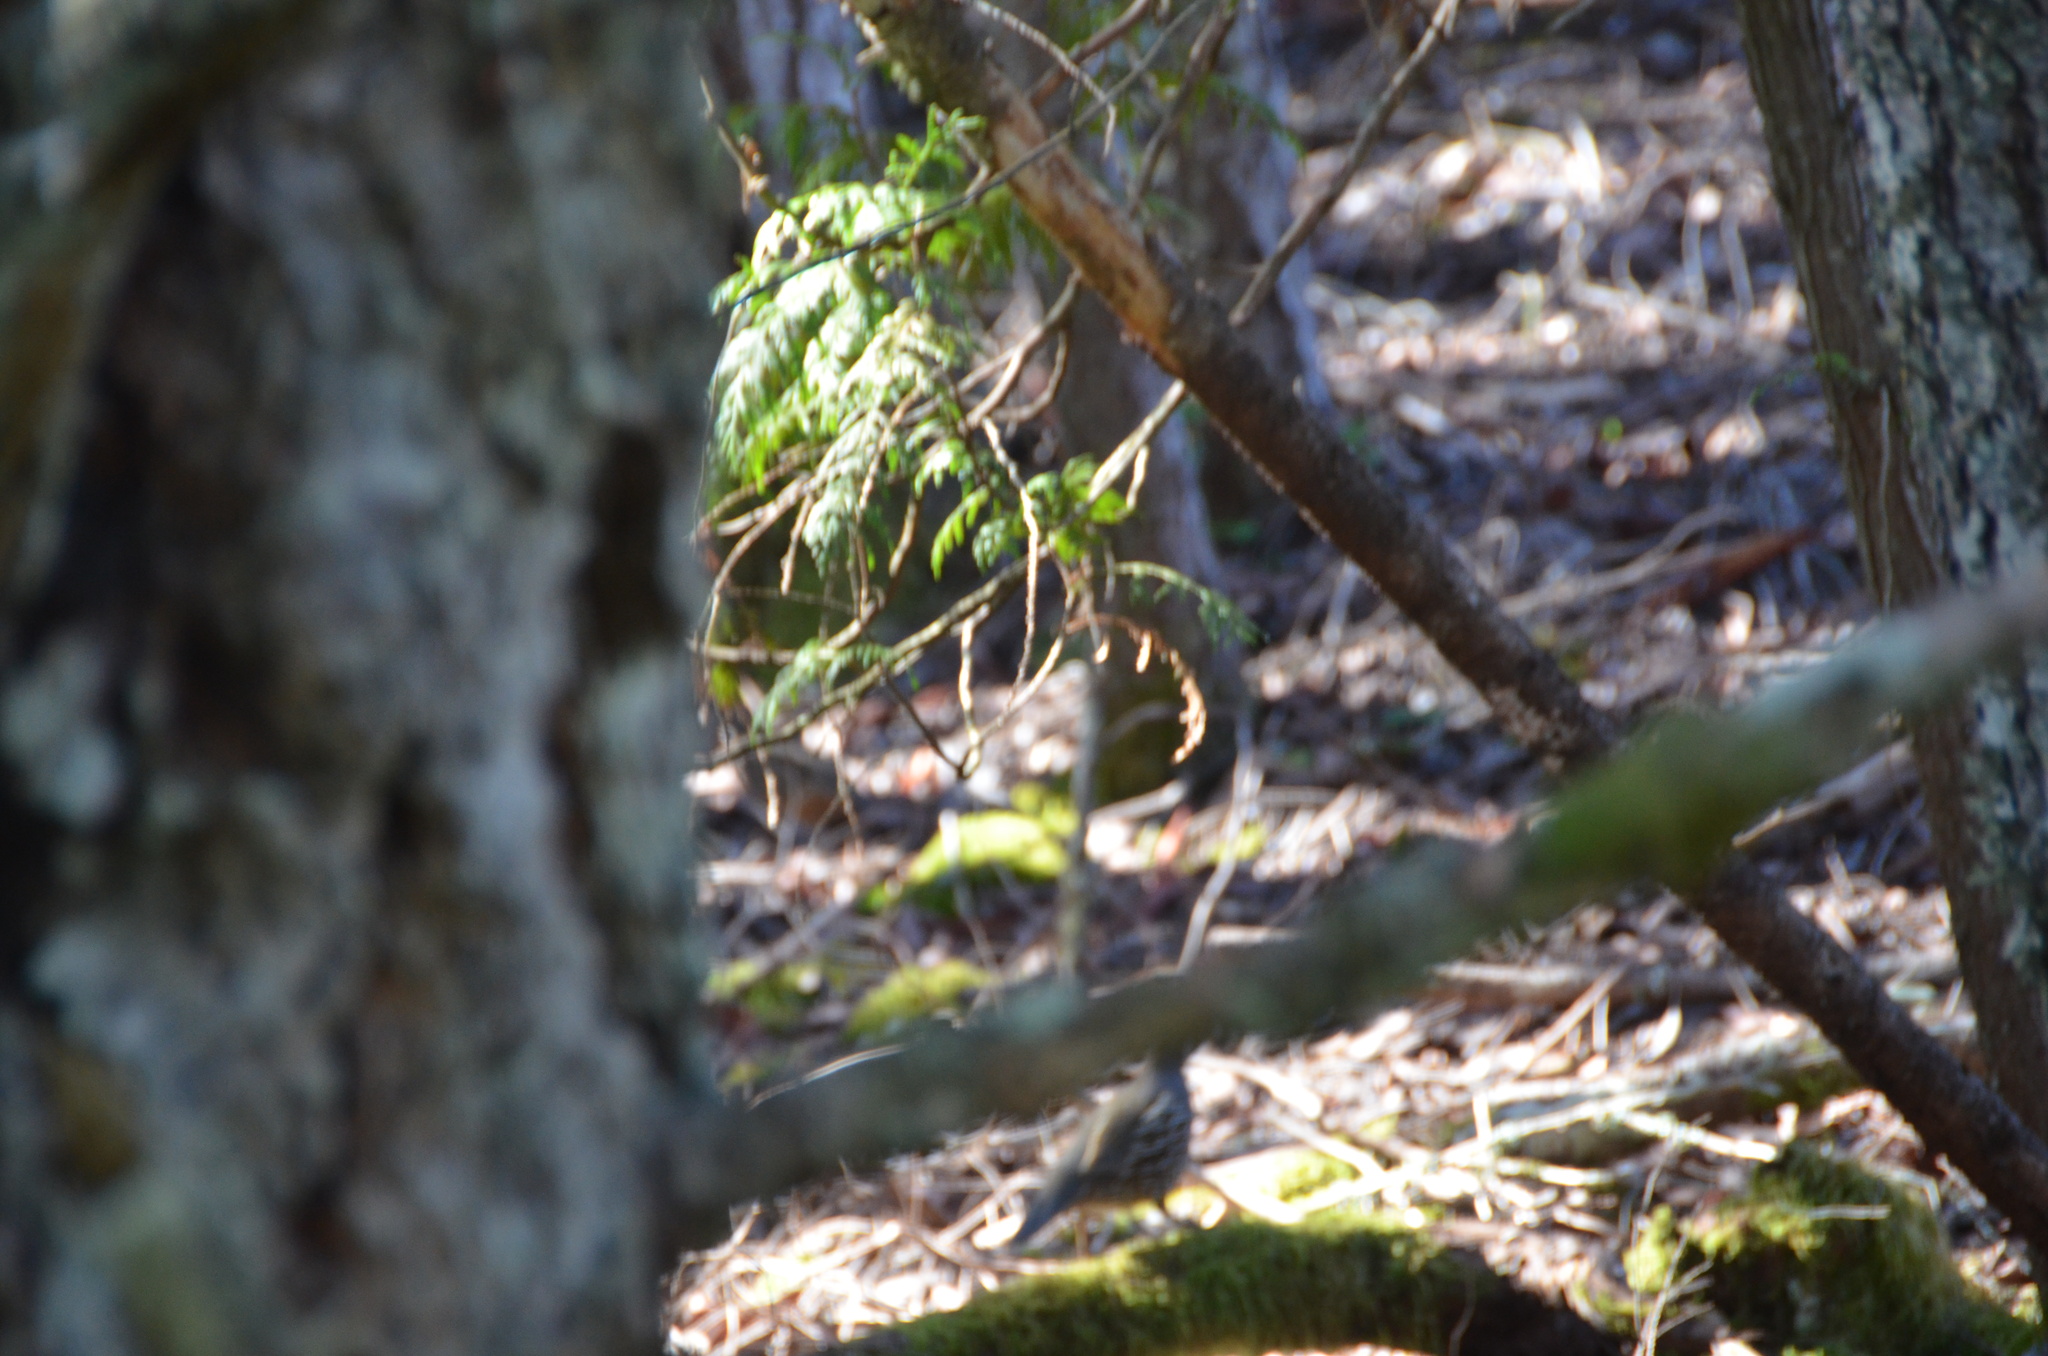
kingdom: Animalia
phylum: Chordata
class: Aves
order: Galliformes
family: Odontophoridae
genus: Callipepla
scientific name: Callipepla californica
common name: California quail
